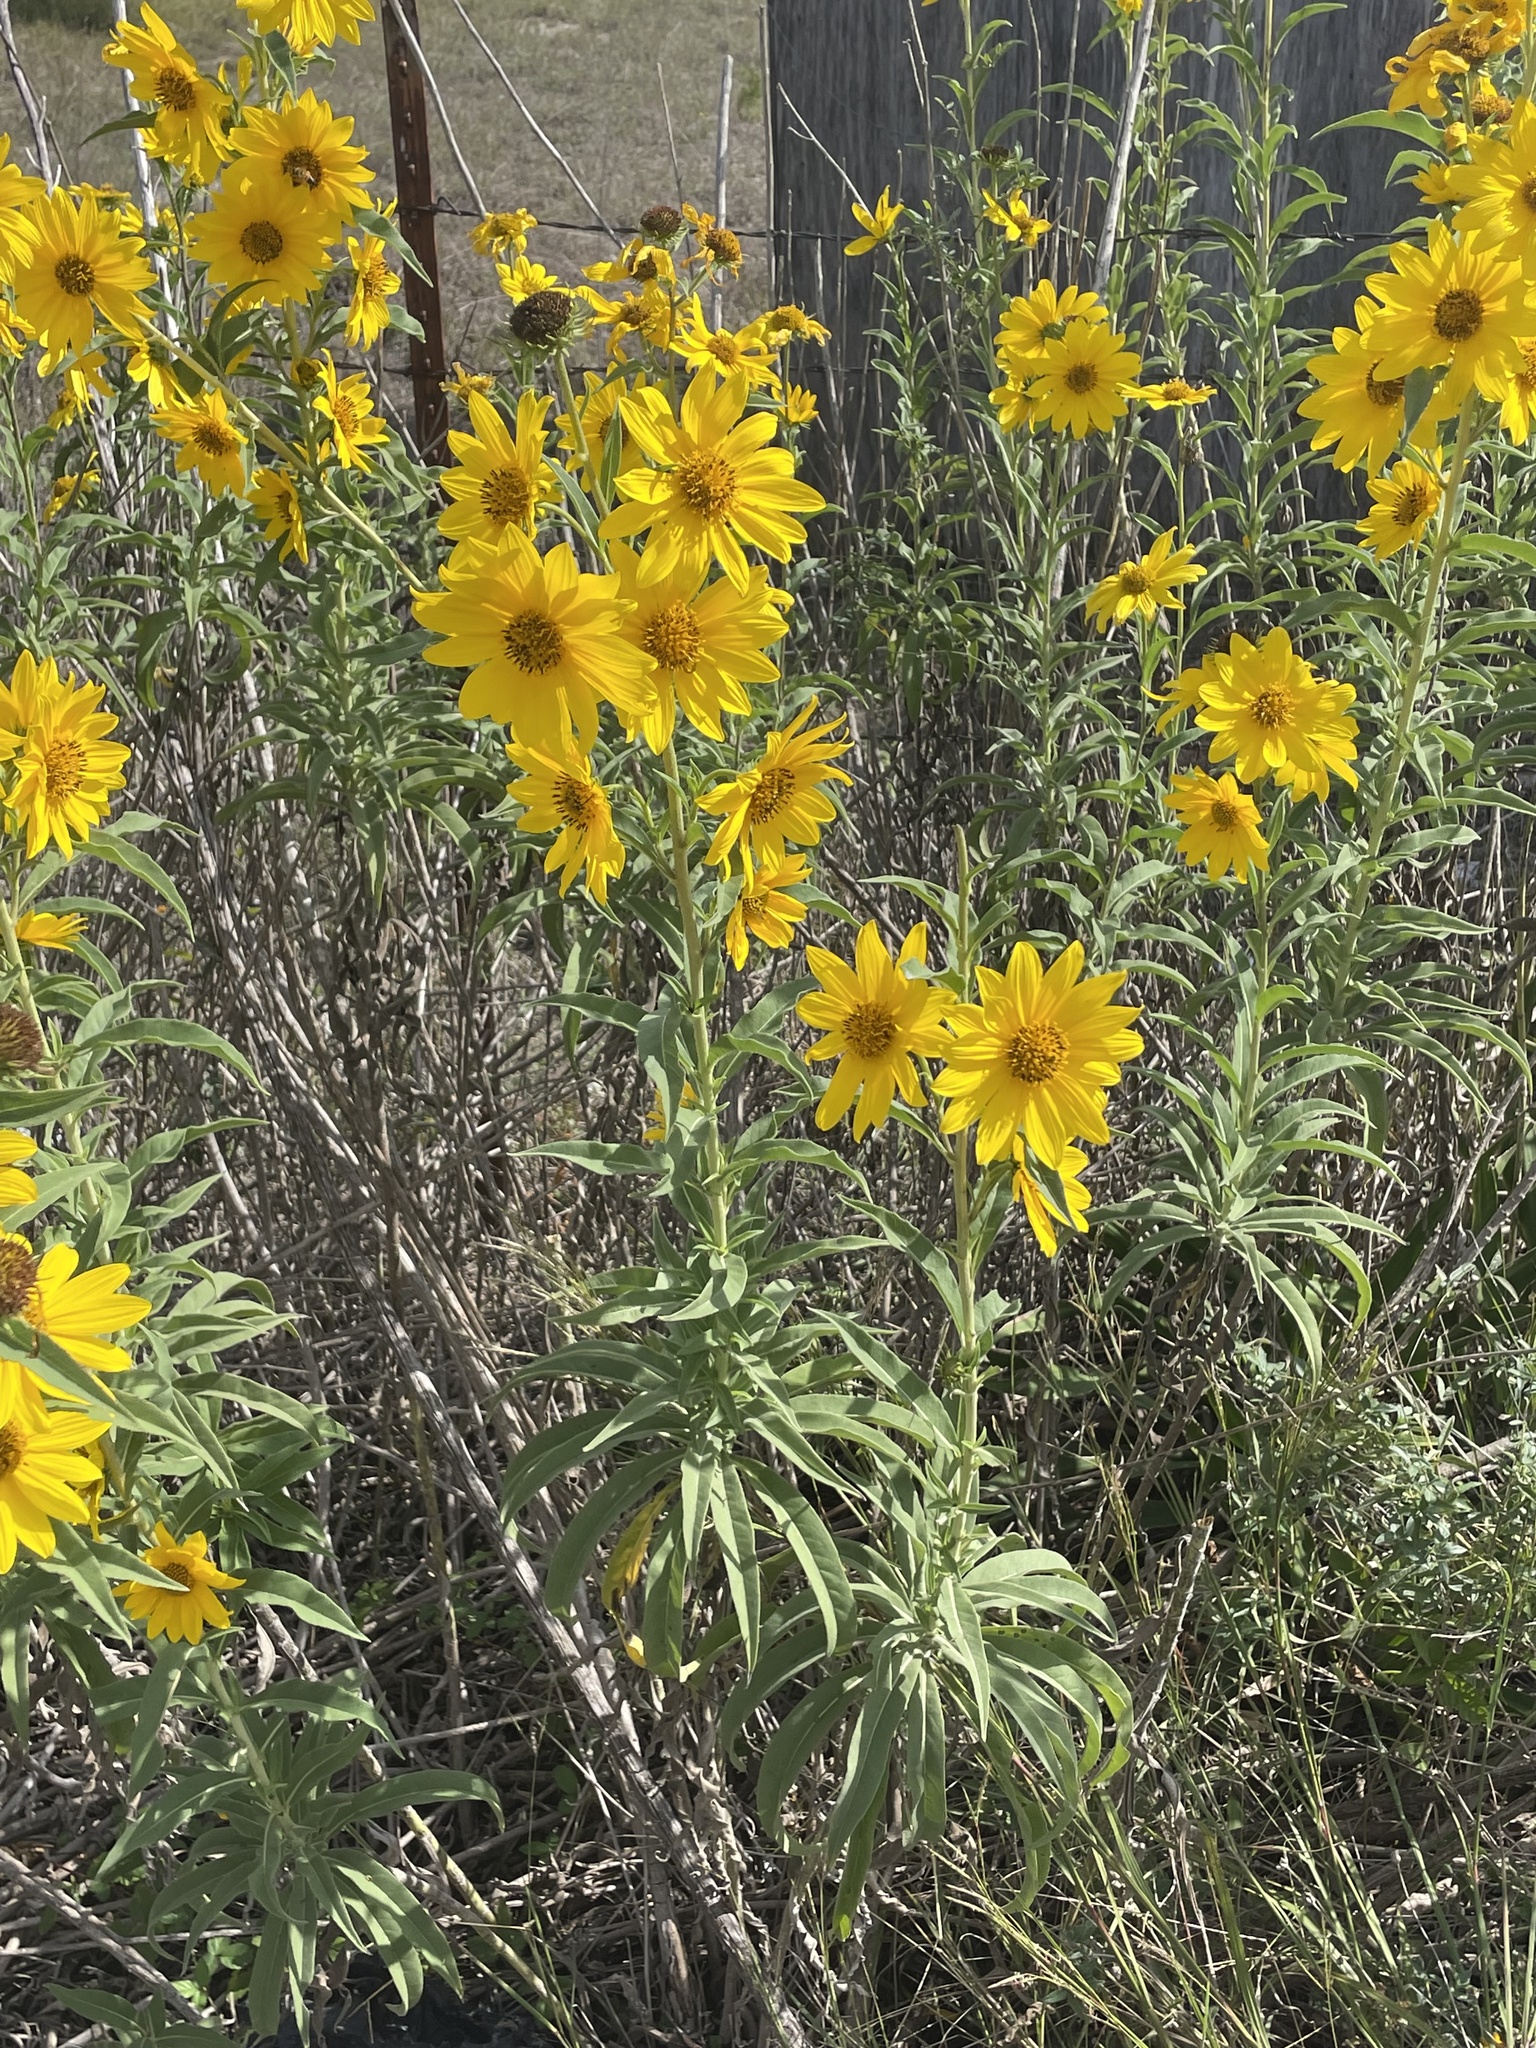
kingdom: Plantae
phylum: Tracheophyta
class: Magnoliopsida
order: Asterales
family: Asteraceae
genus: Helianthus
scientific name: Helianthus maximiliani
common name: Maximilian's sunflower
